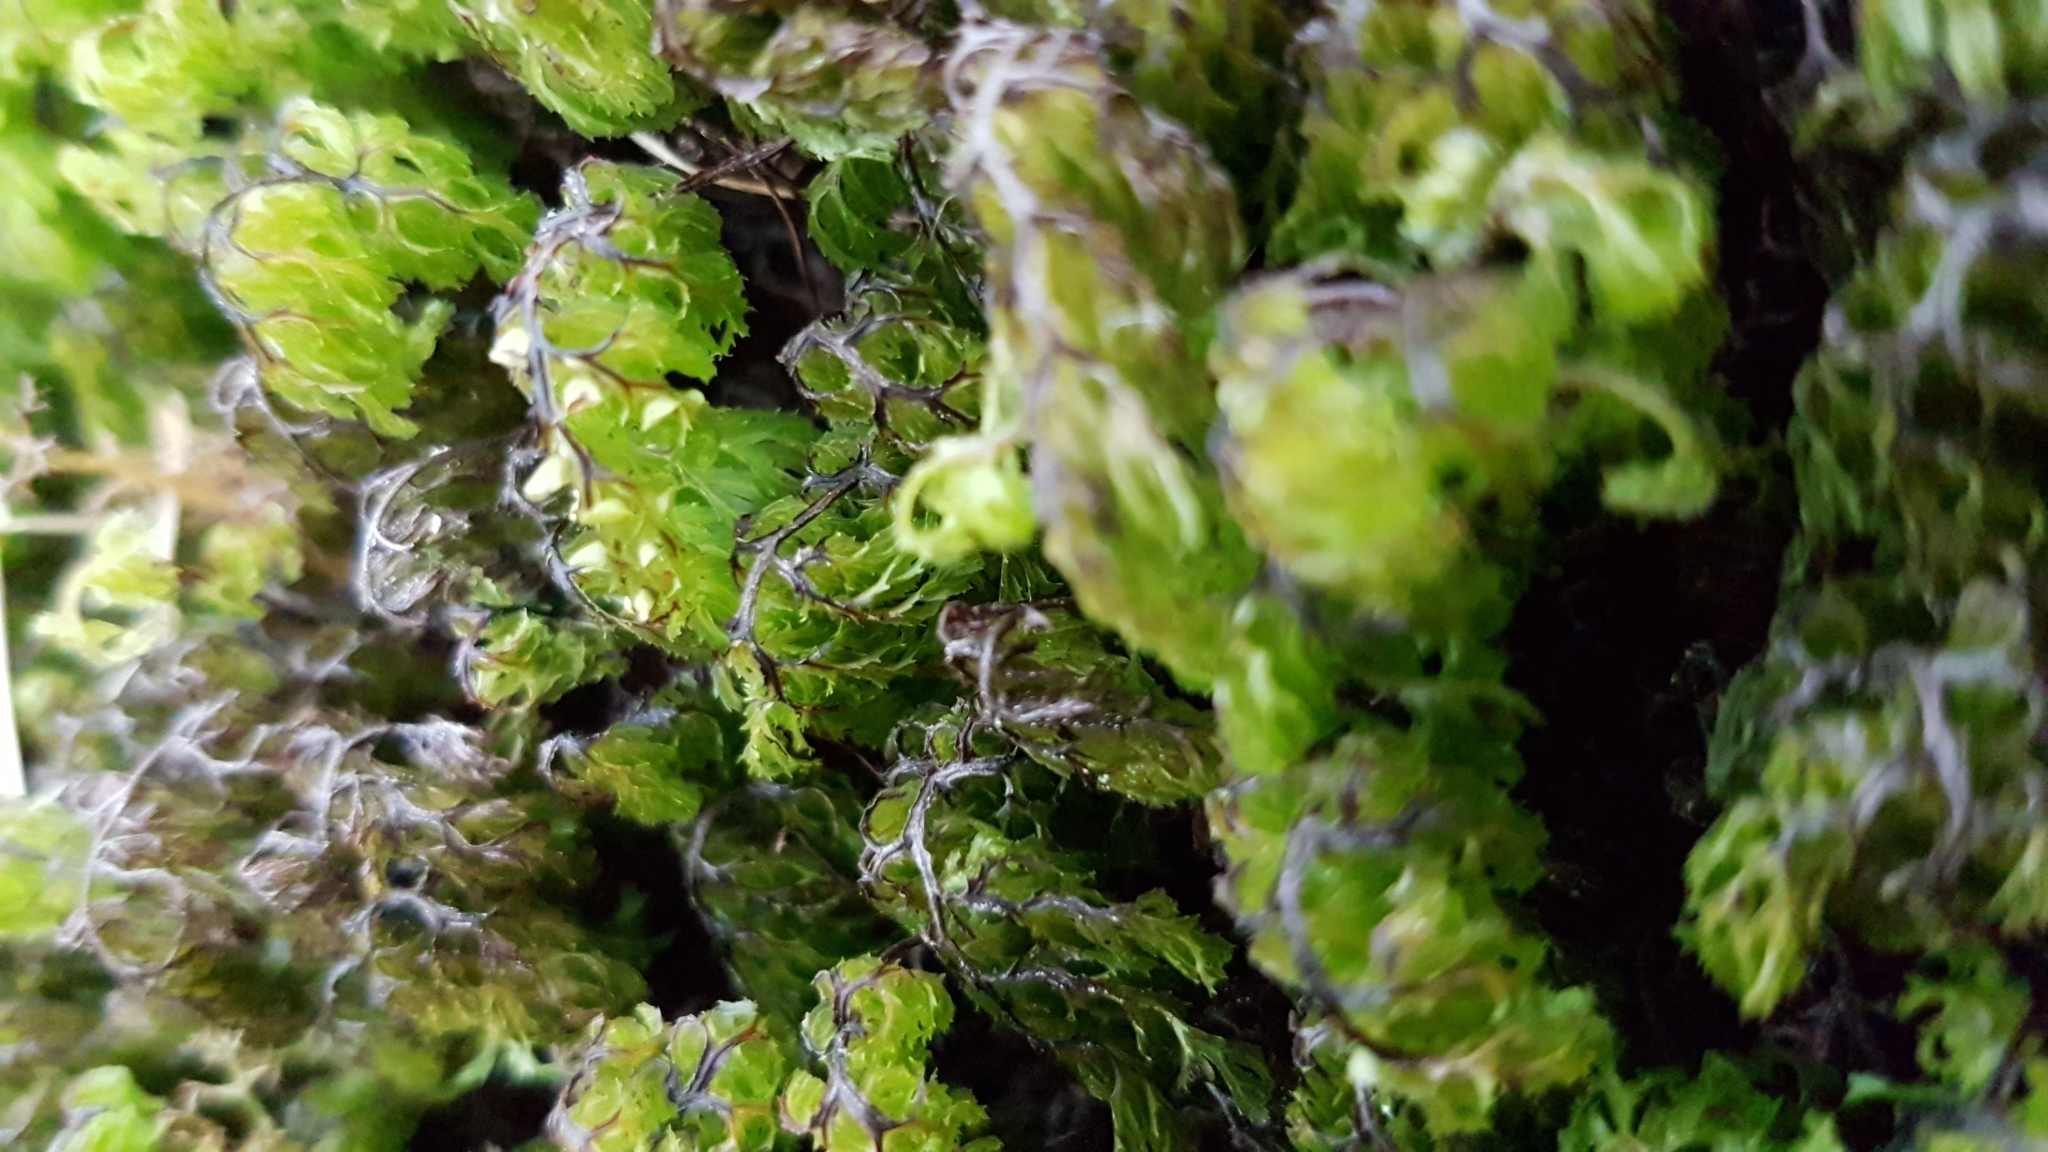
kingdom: Plantae
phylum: Tracheophyta
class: Polypodiopsida
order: Hymenophyllales
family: Hymenophyllaceae
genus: Hymenophyllum
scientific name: Hymenophyllum multifidum
